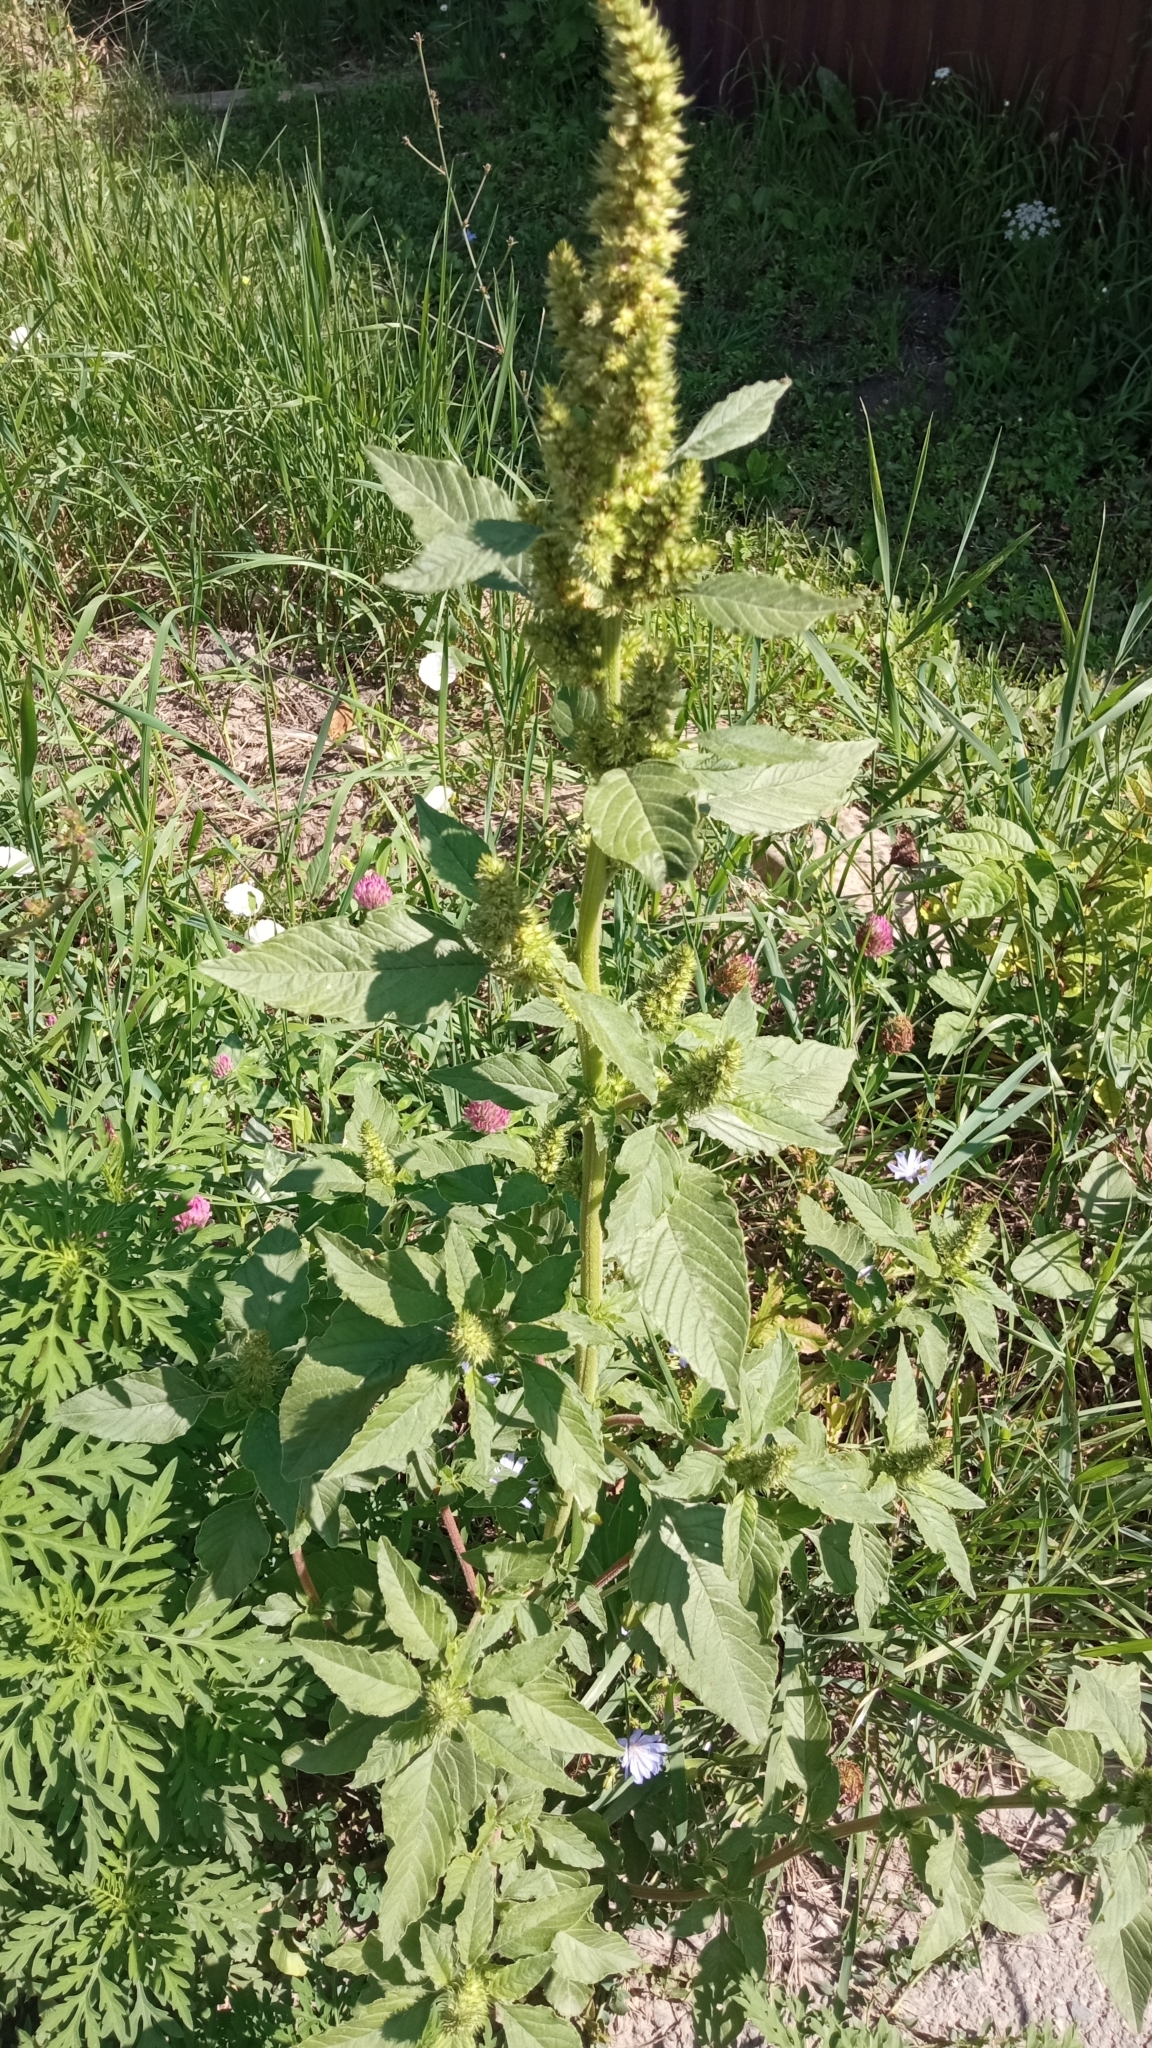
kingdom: Plantae
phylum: Tracheophyta
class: Magnoliopsida
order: Caryophyllales
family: Amaranthaceae
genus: Amaranthus
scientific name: Amaranthus retroflexus
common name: Redroot amaranth
